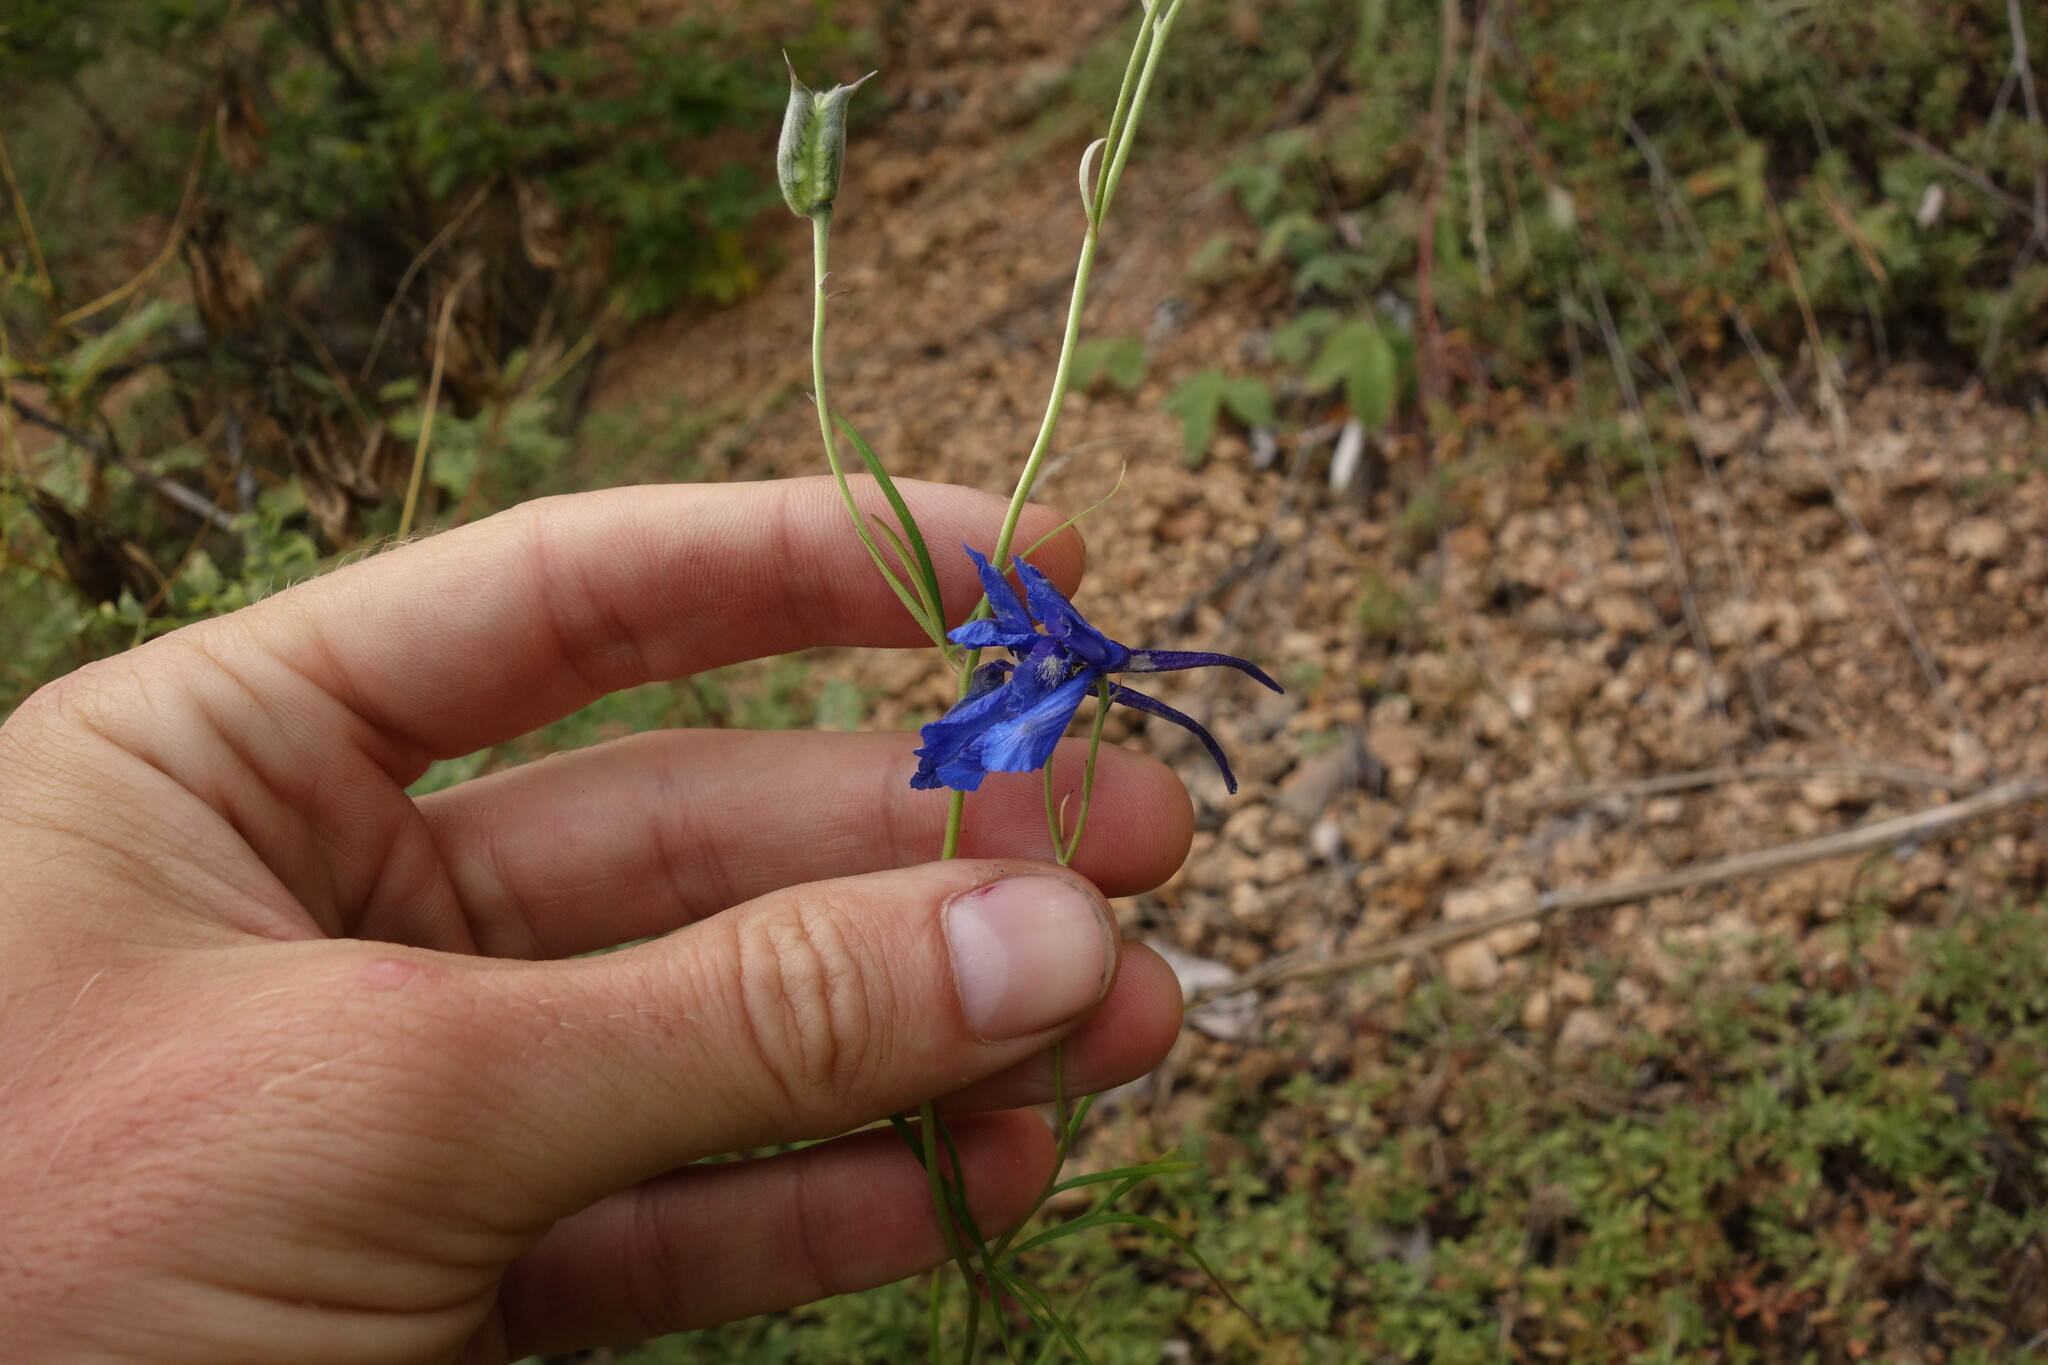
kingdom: Plantae
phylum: Tracheophyta
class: Magnoliopsida
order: Ranunculales
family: Ranunculaceae
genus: Delphinium
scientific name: Delphinium grandiflorum
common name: Siberian larkspur
